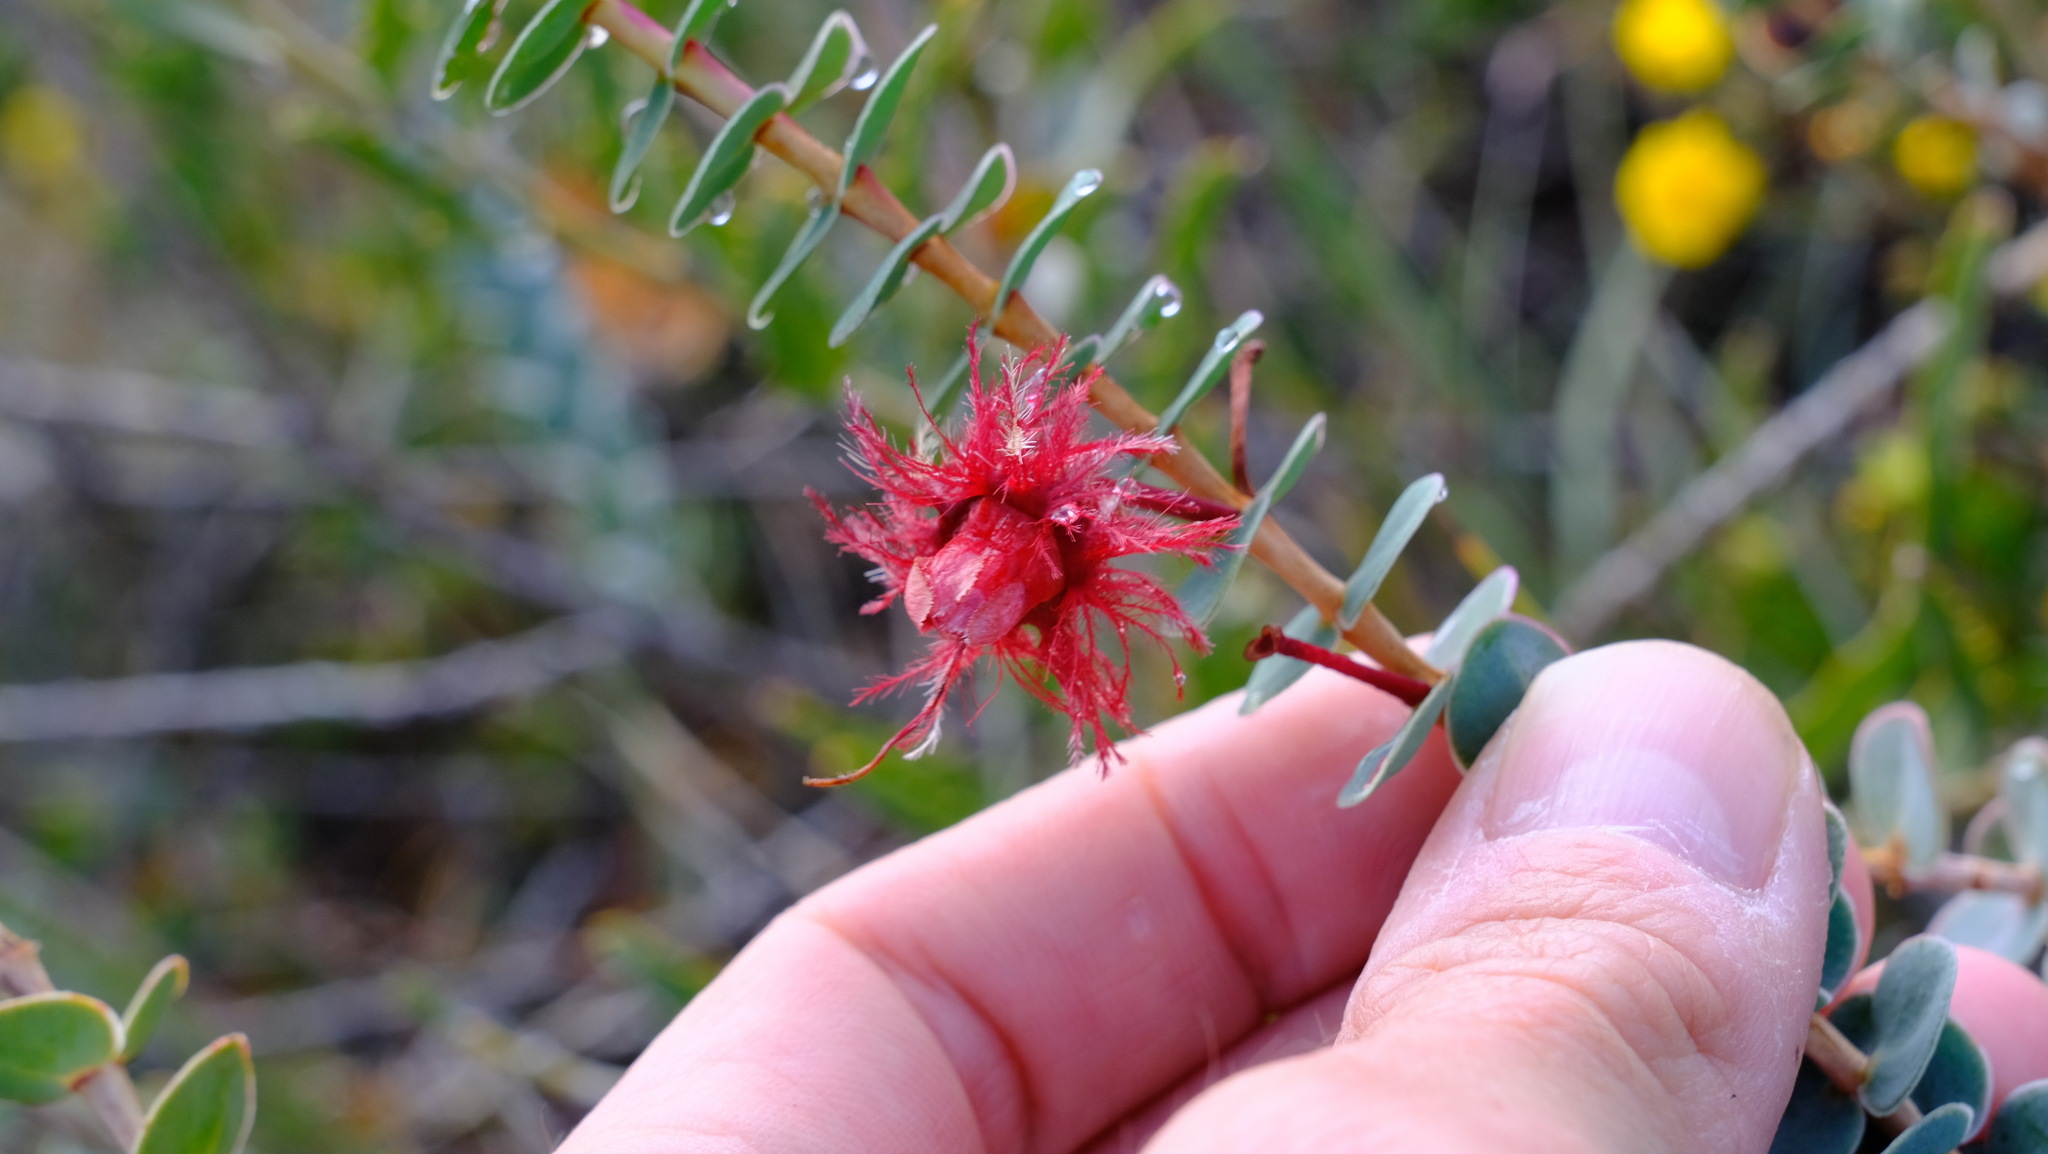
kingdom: Plantae
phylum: Tracheophyta
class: Magnoliopsida
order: Myrtales
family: Myrtaceae
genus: Verticordia
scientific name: Verticordia grandis
